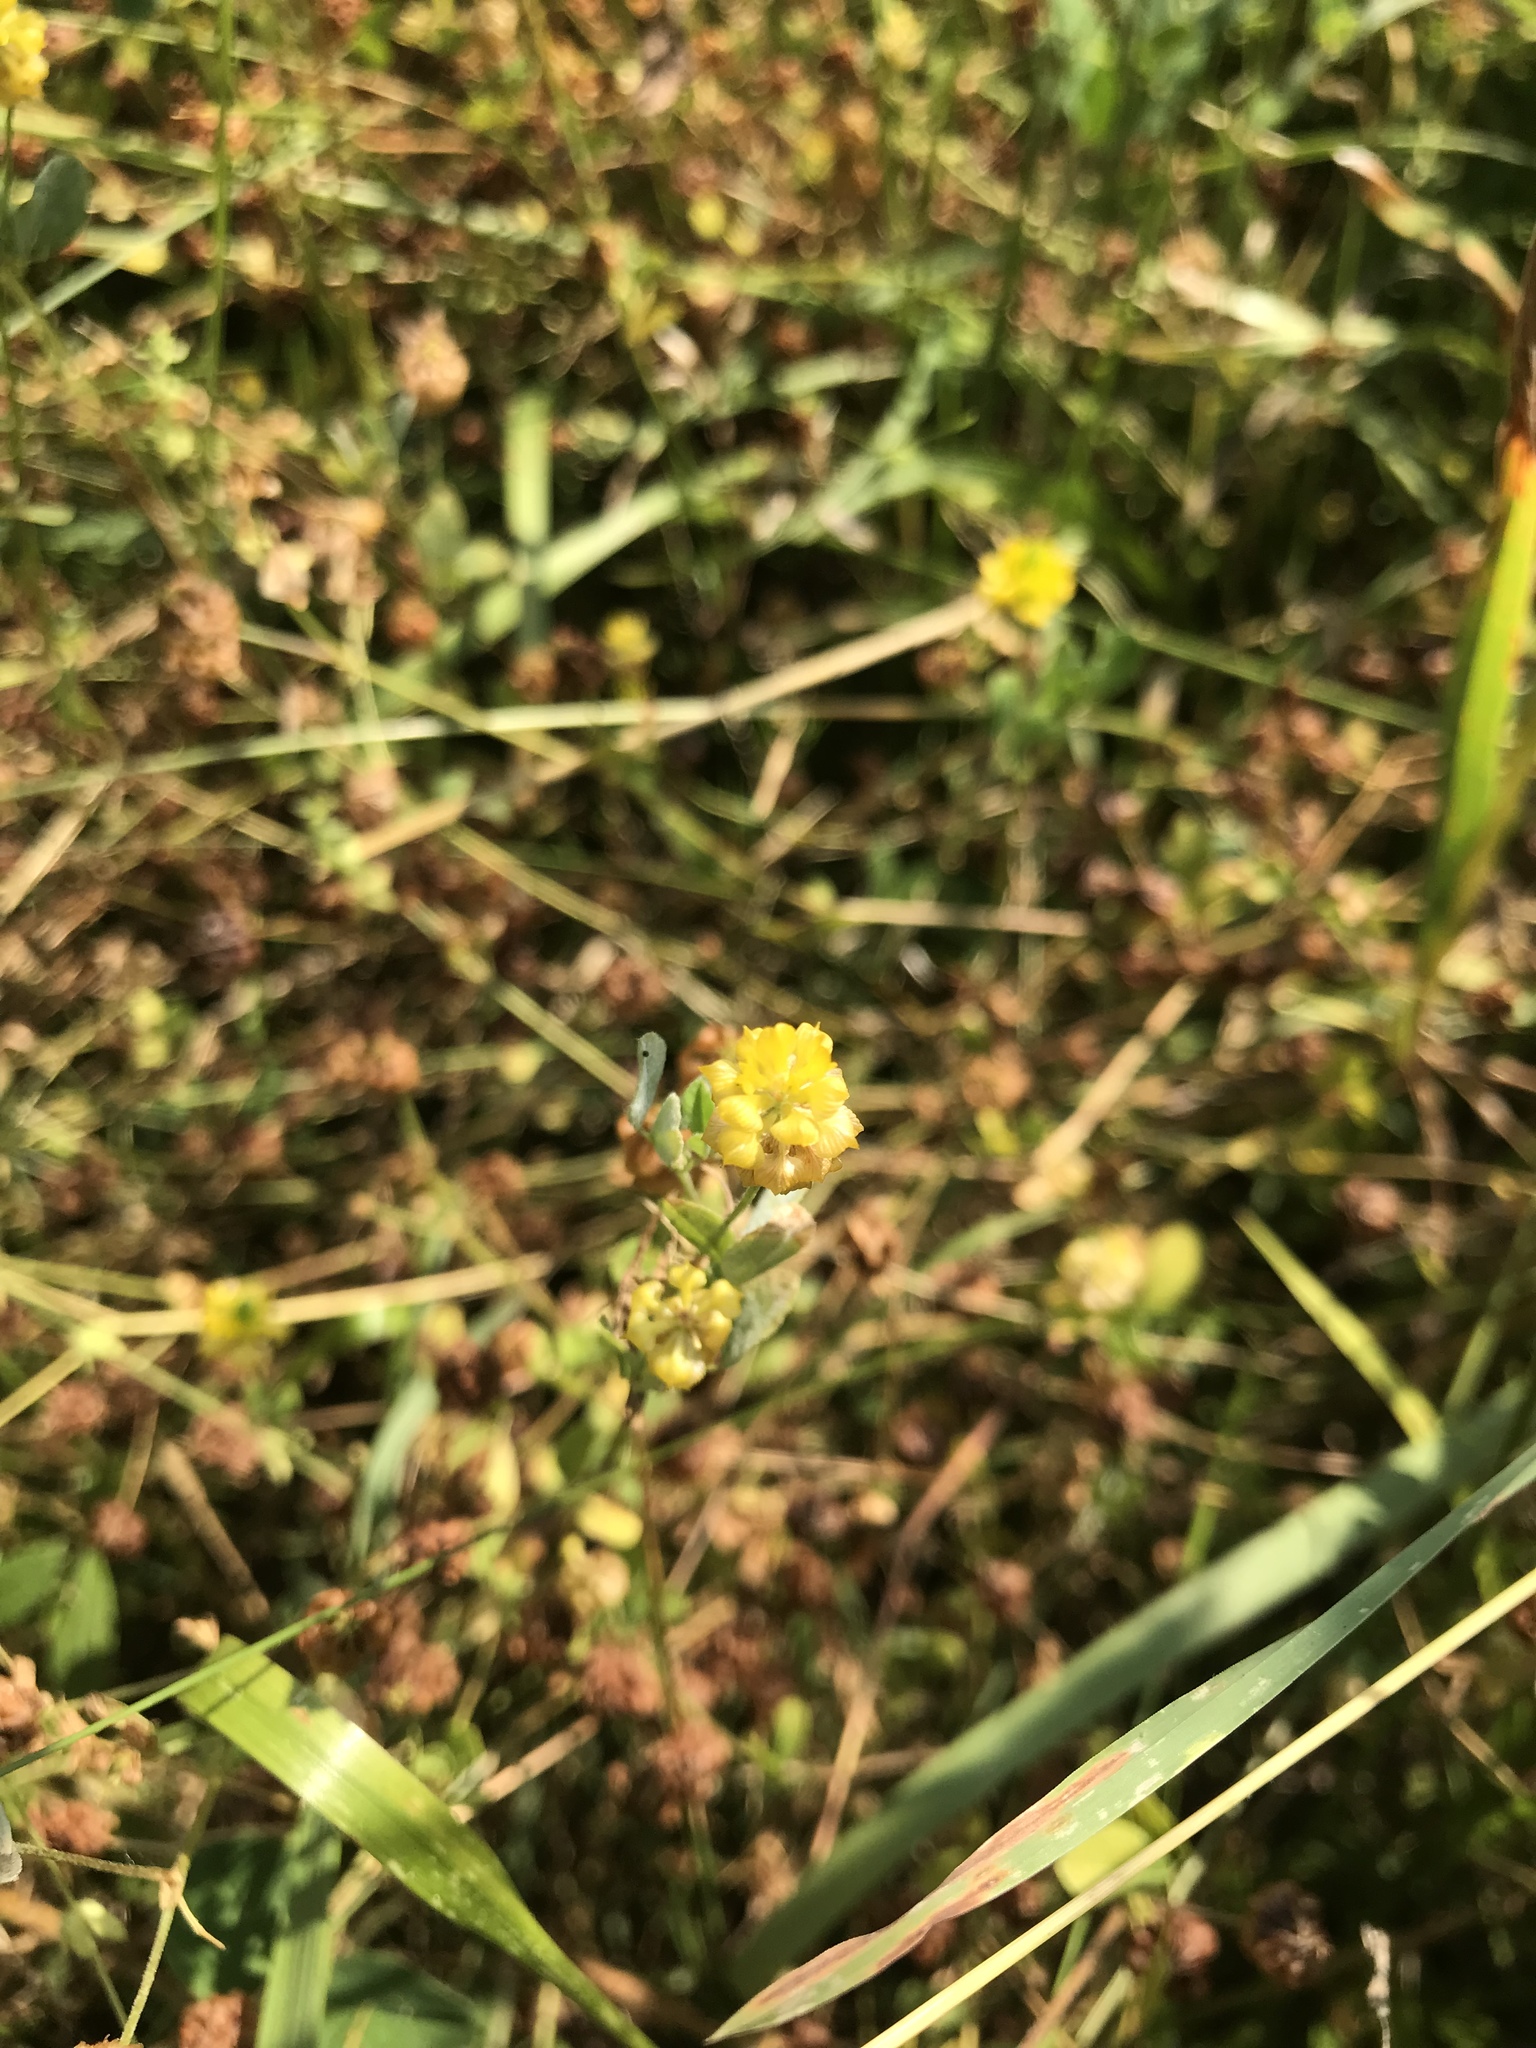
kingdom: Plantae
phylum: Tracheophyta
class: Magnoliopsida
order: Fabales
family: Fabaceae
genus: Trifolium
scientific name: Trifolium campestre
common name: Field clover
